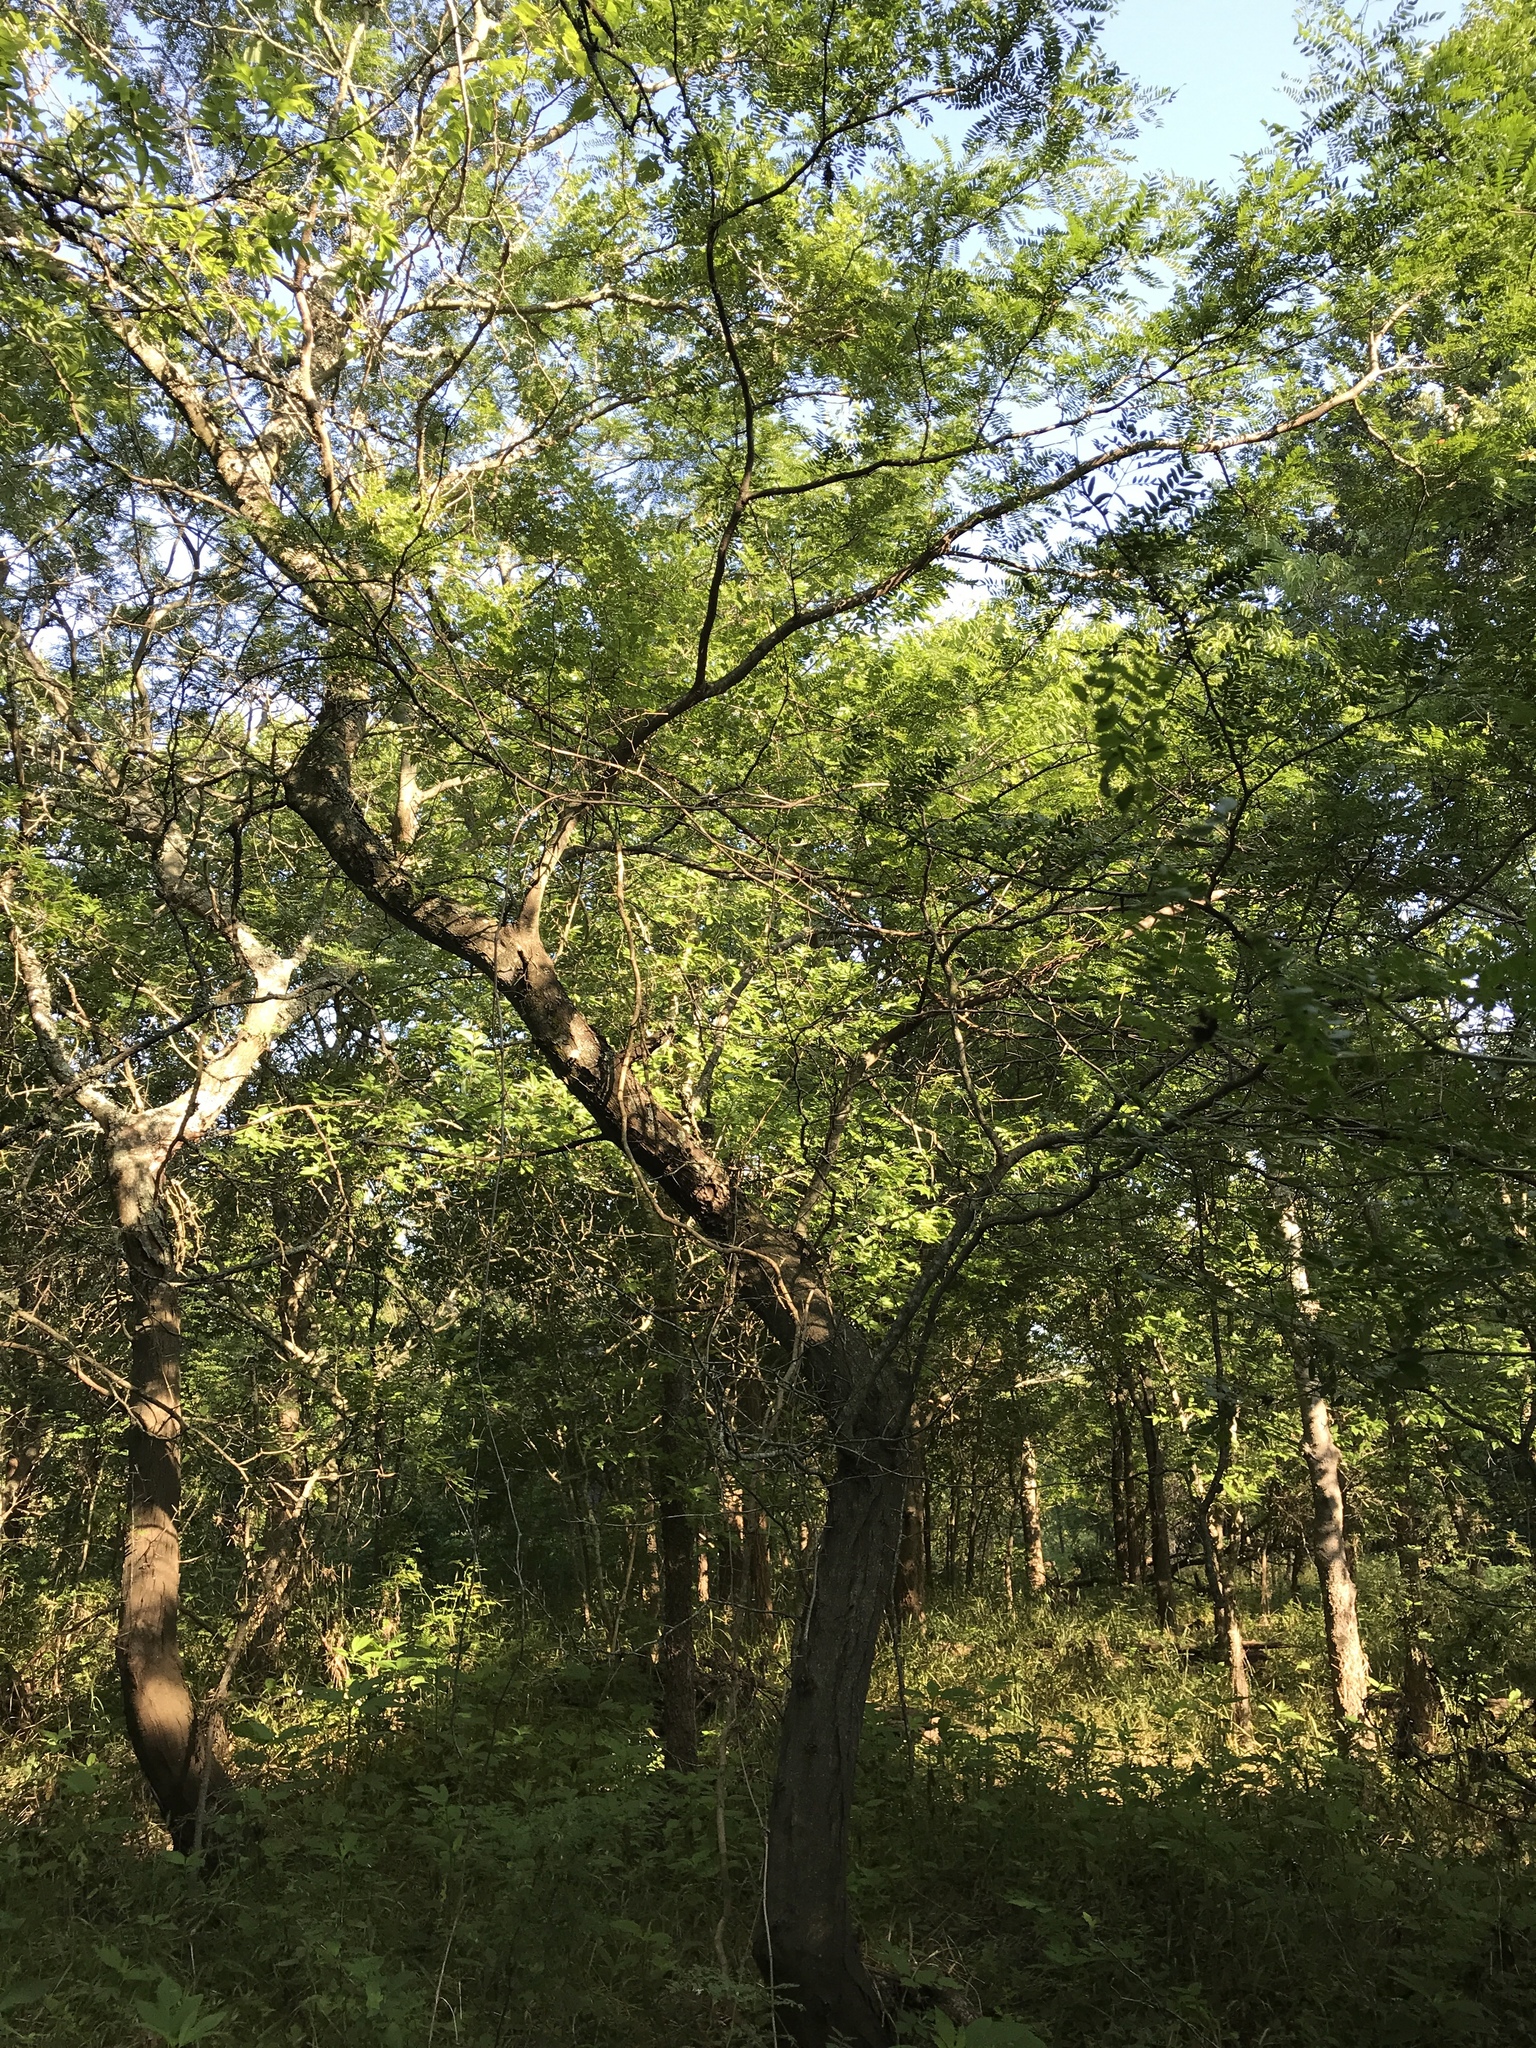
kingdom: Plantae
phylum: Tracheophyta
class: Magnoliopsida
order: Fabales
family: Fabaceae
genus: Gleditsia
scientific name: Gleditsia triacanthos
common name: Common honeylocust
